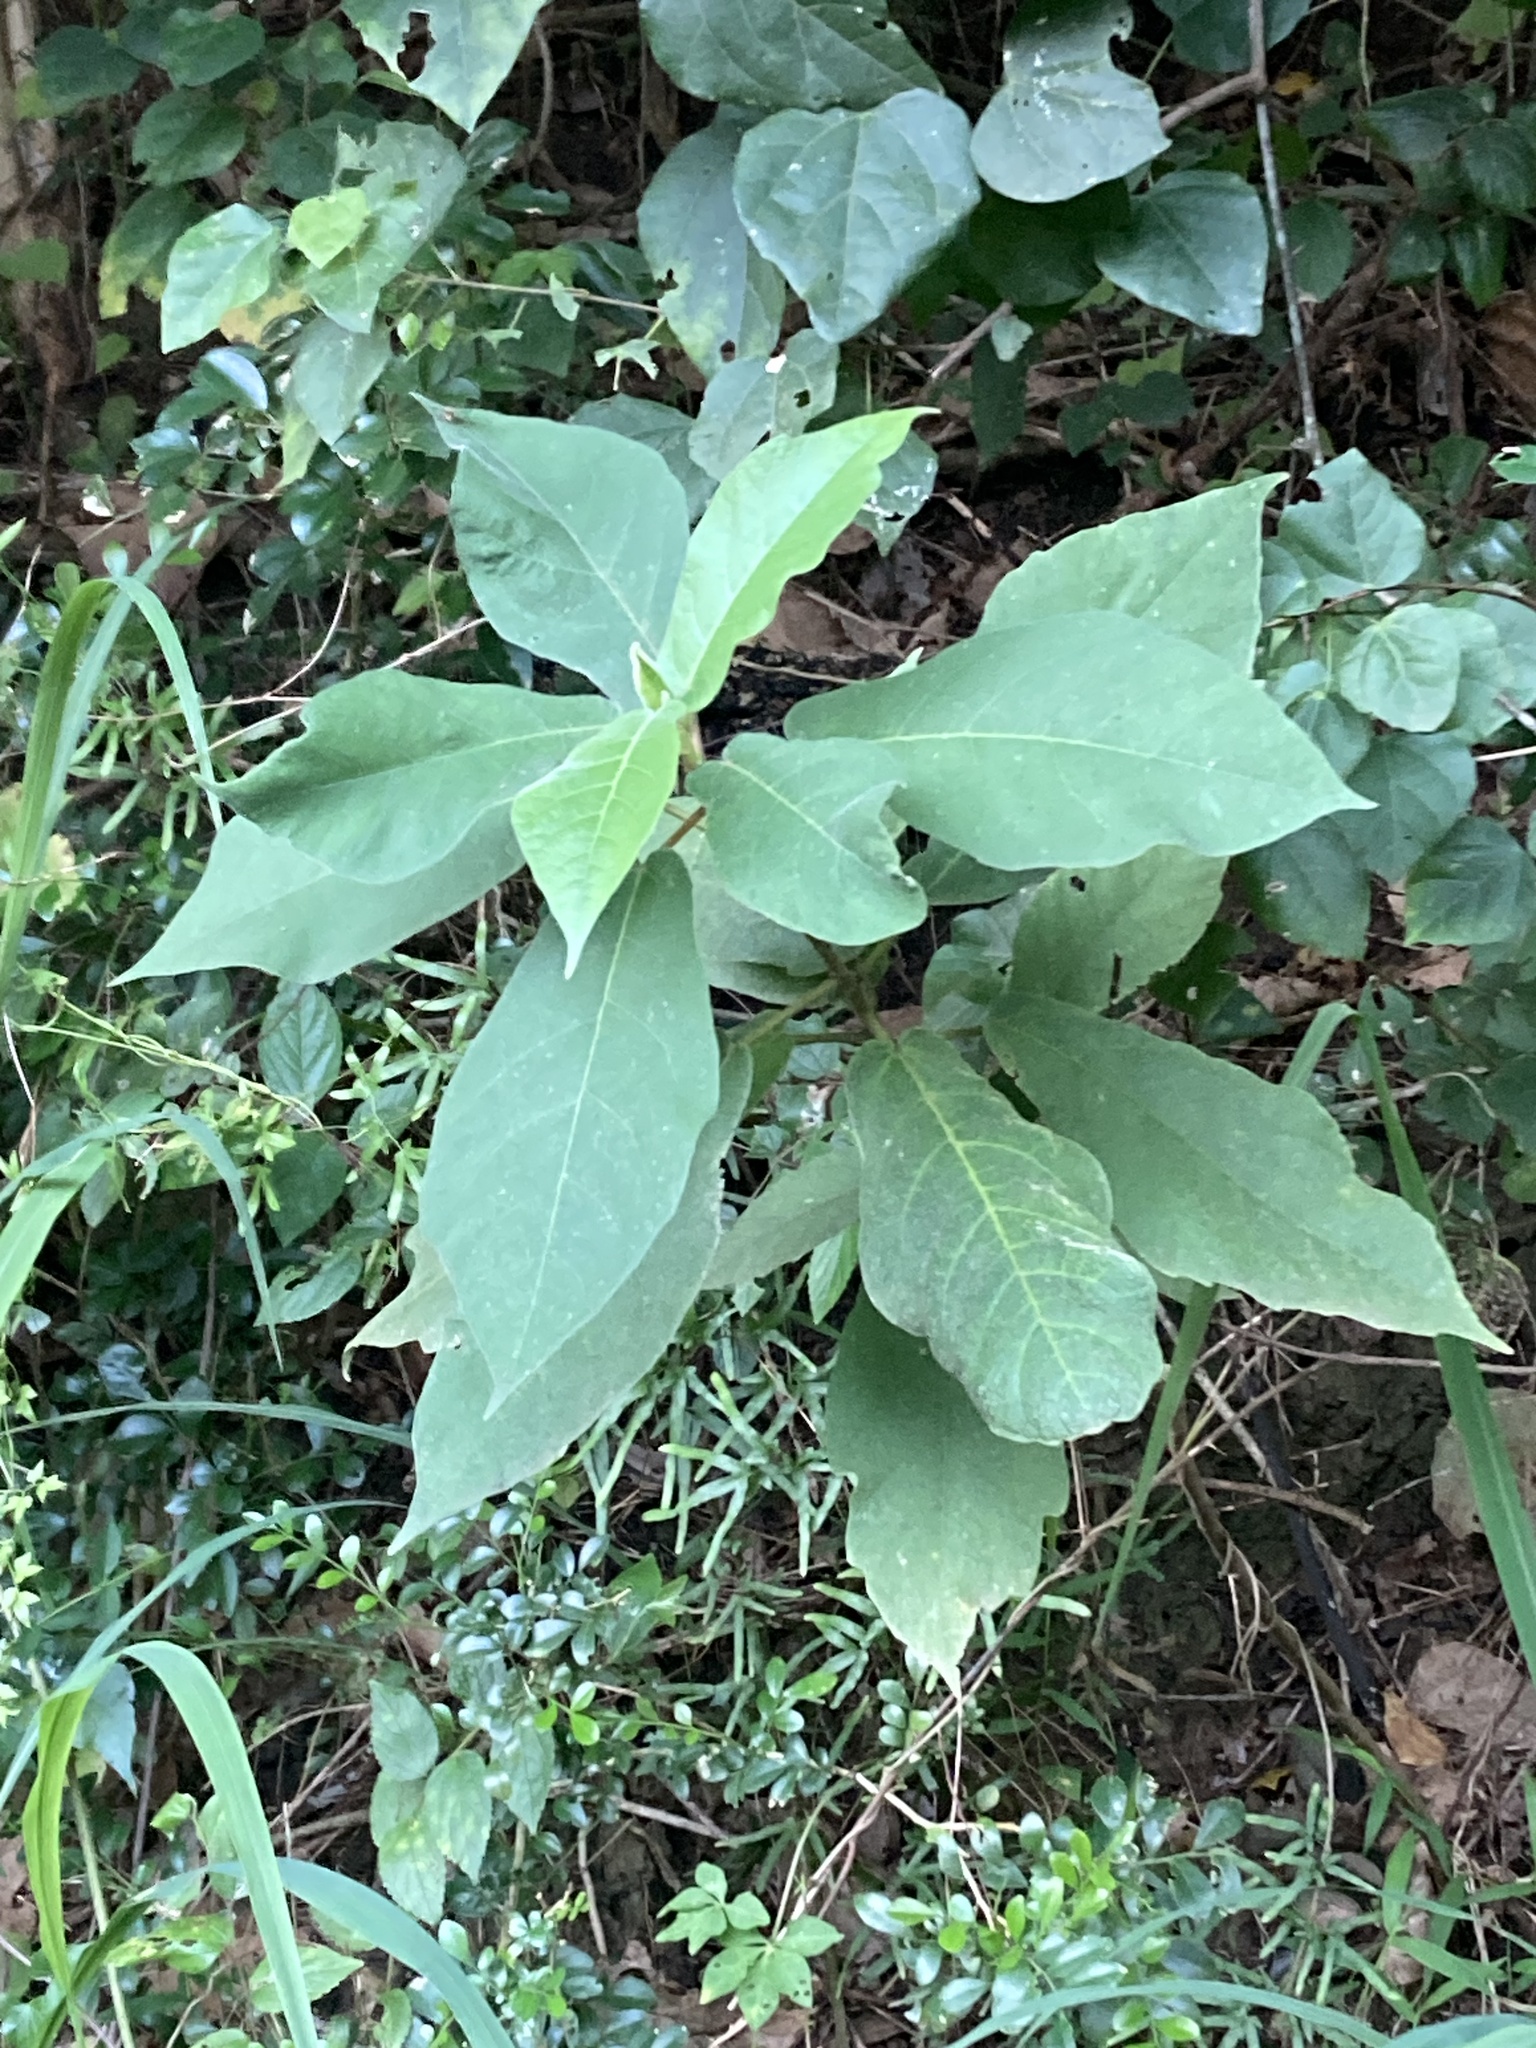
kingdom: Plantae
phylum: Tracheophyta
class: Magnoliopsida
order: Rosales
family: Moraceae
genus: Ficus
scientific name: Ficus erecta
